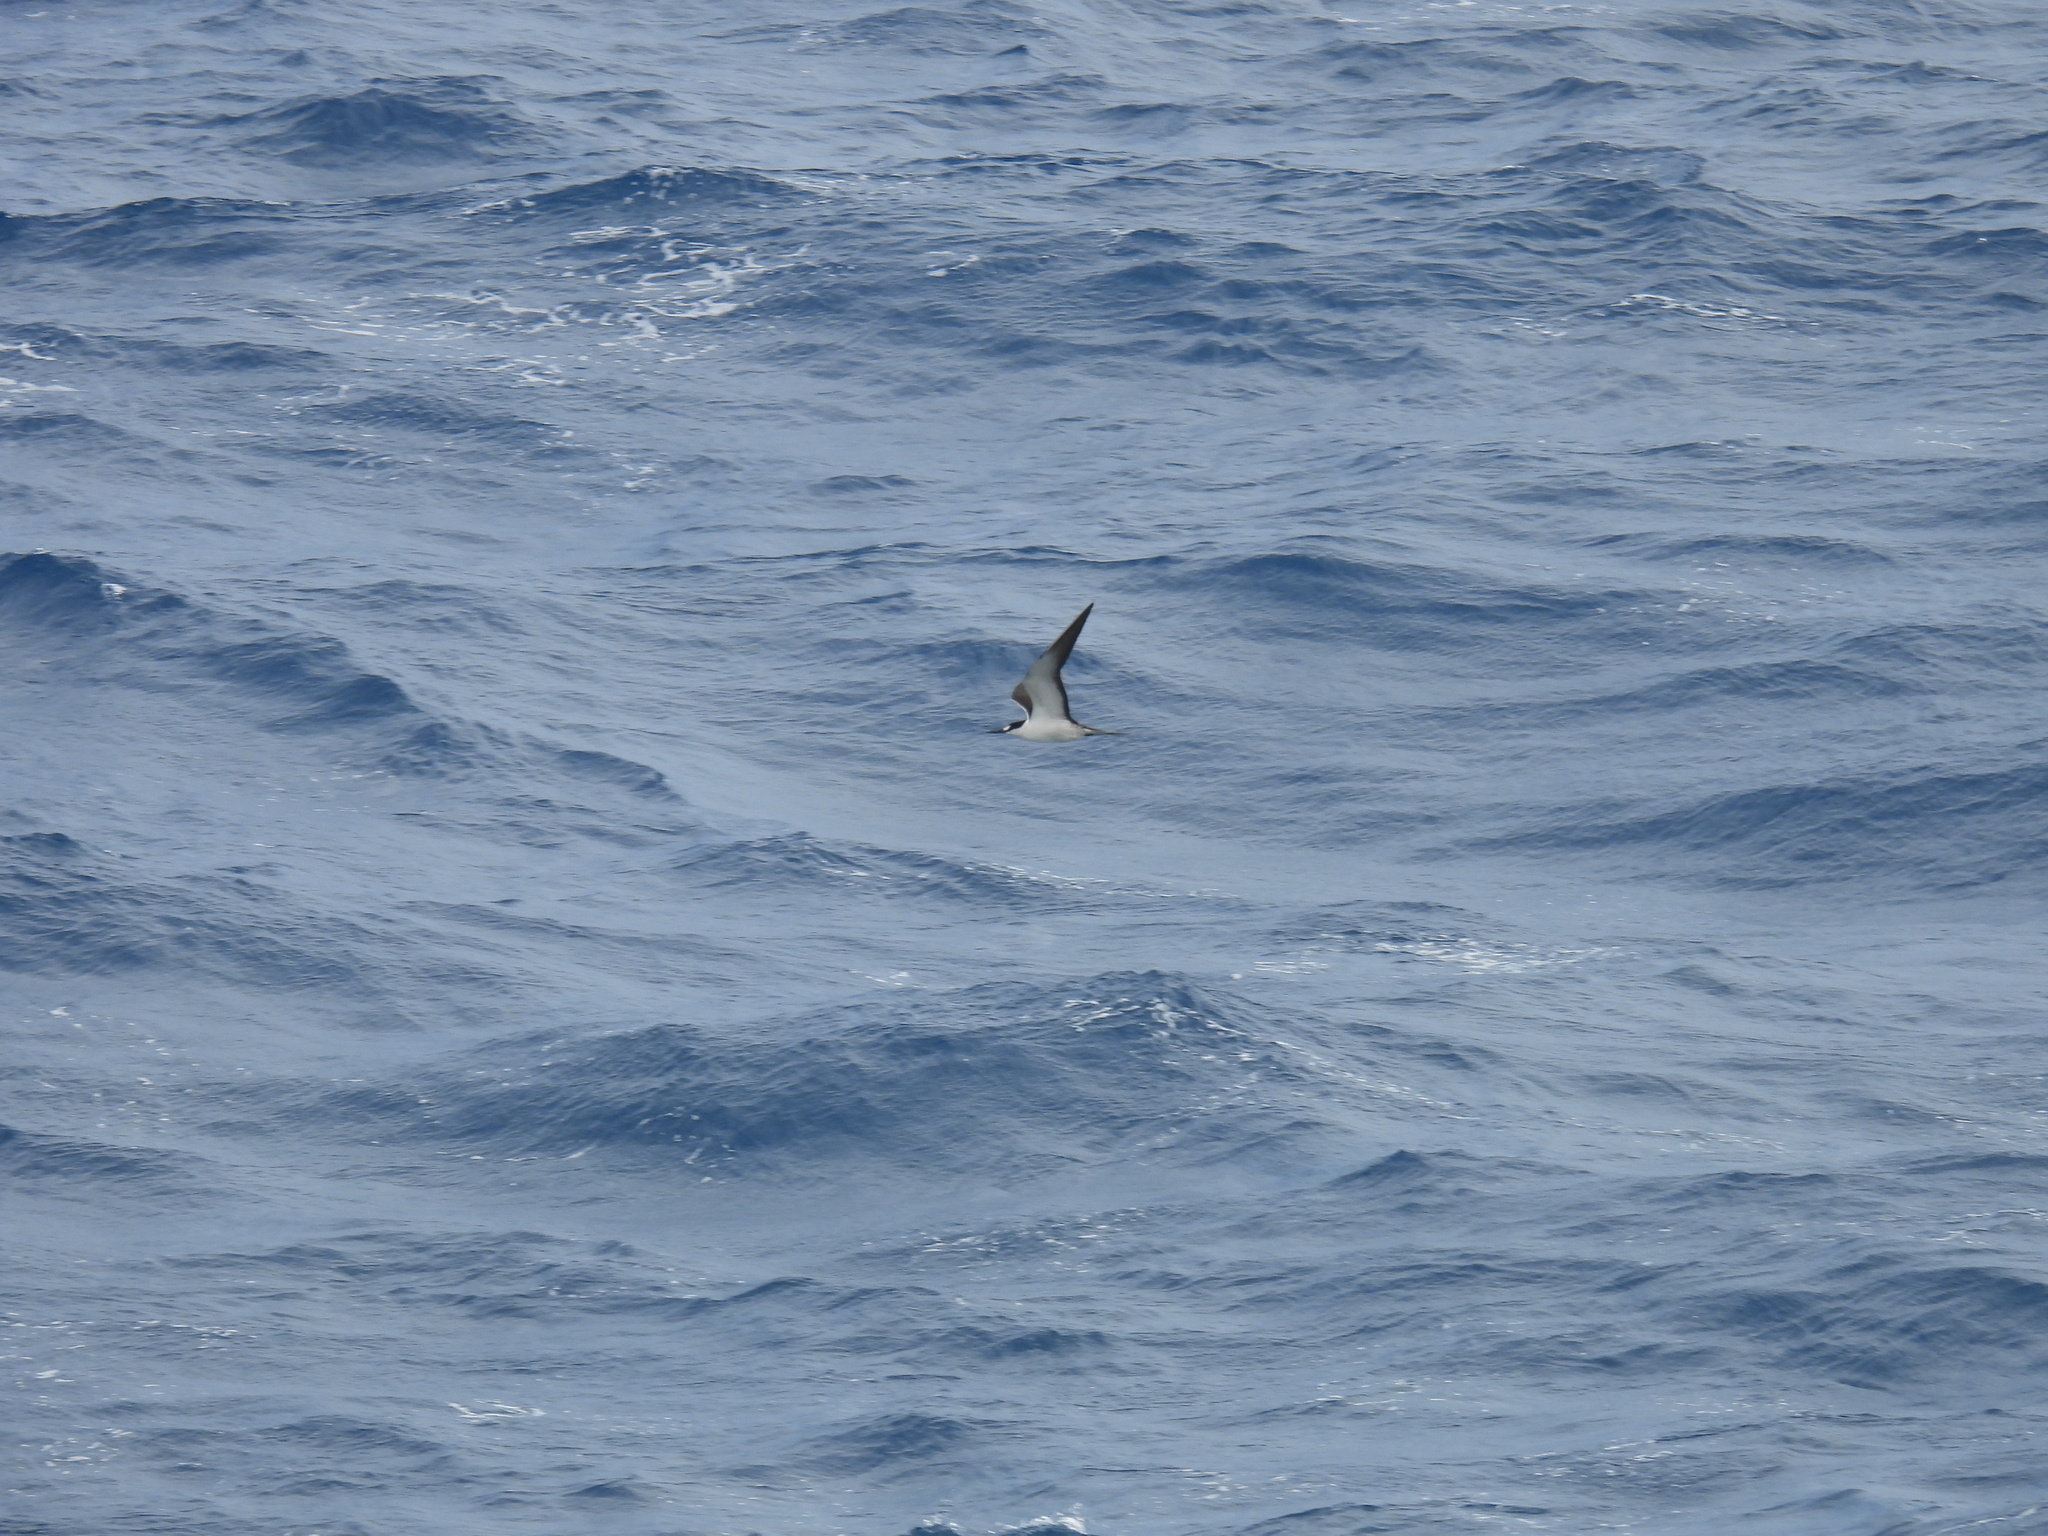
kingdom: Animalia
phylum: Chordata
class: Aves
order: Charadriiformes
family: Laridae
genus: Onychoprion
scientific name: Onychoprion fuscatus
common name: Sooty tern
